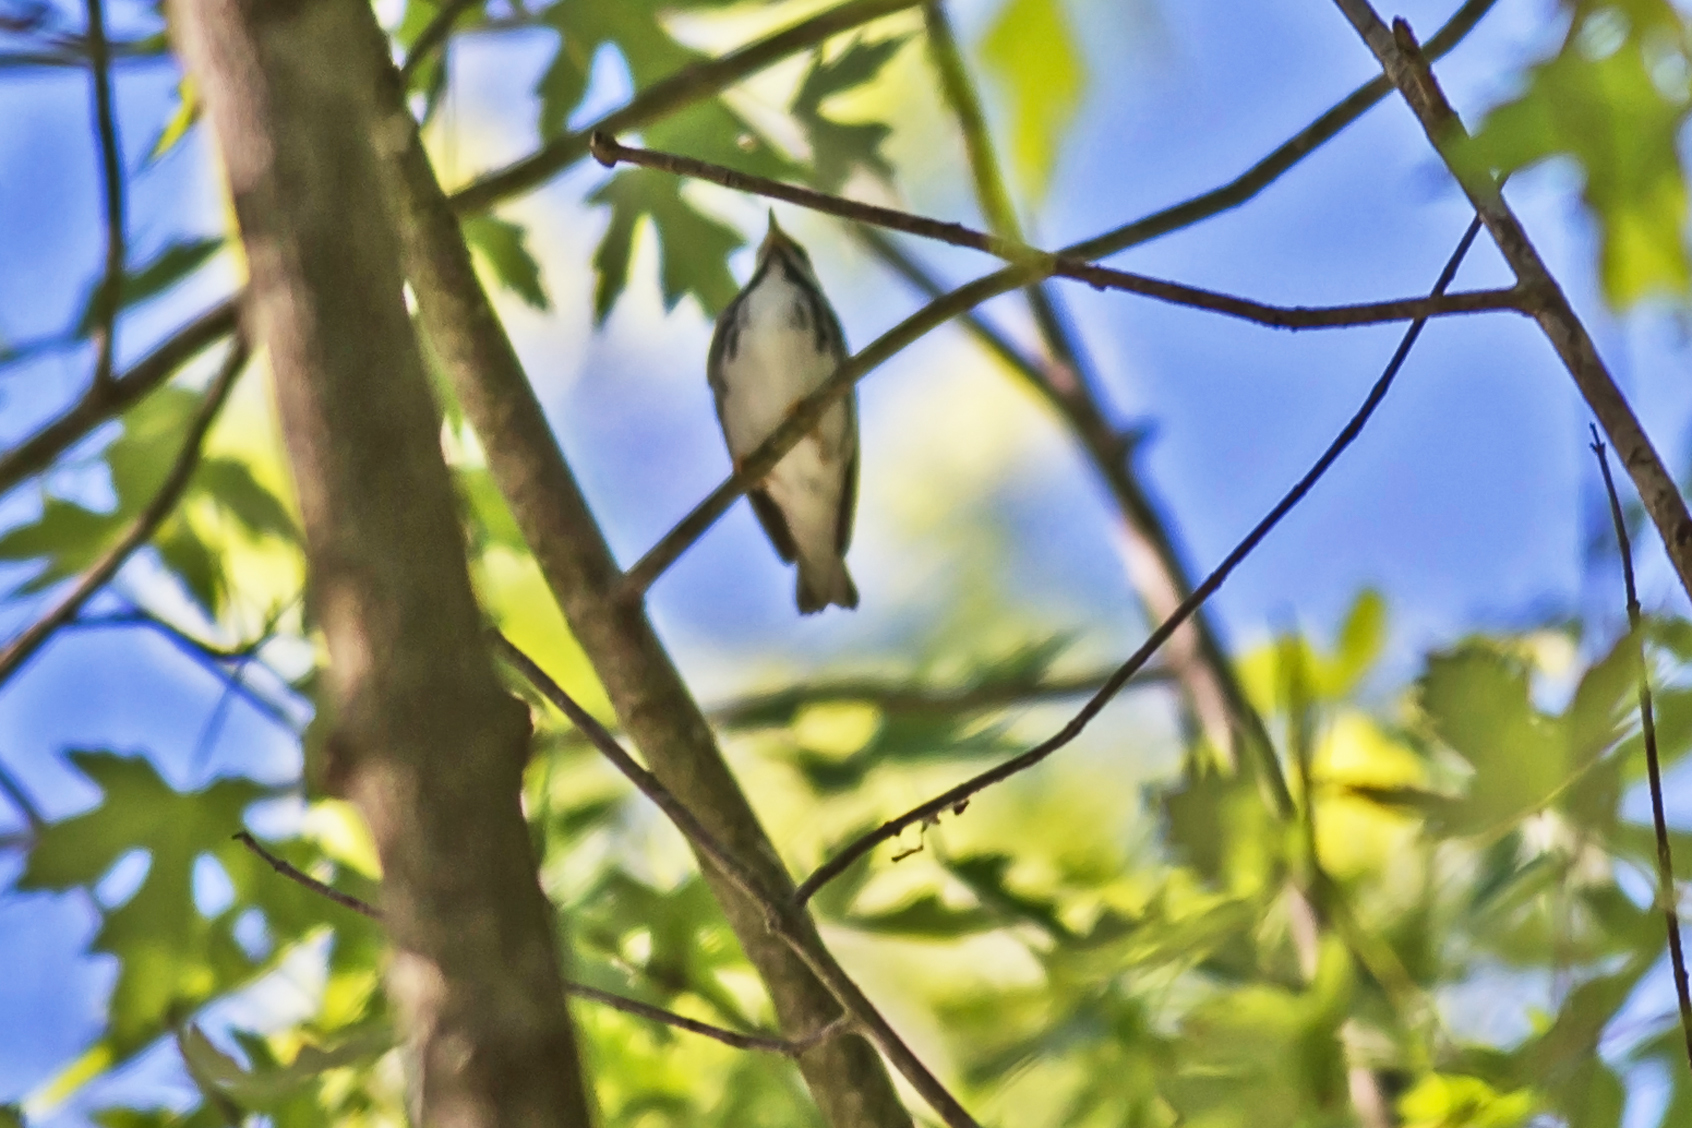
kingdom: Animalia
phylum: Chordata
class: Aves
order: Passeriformes
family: Parulidae
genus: Setophaga
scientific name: Setophaga striata
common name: Blackpoll warbler
